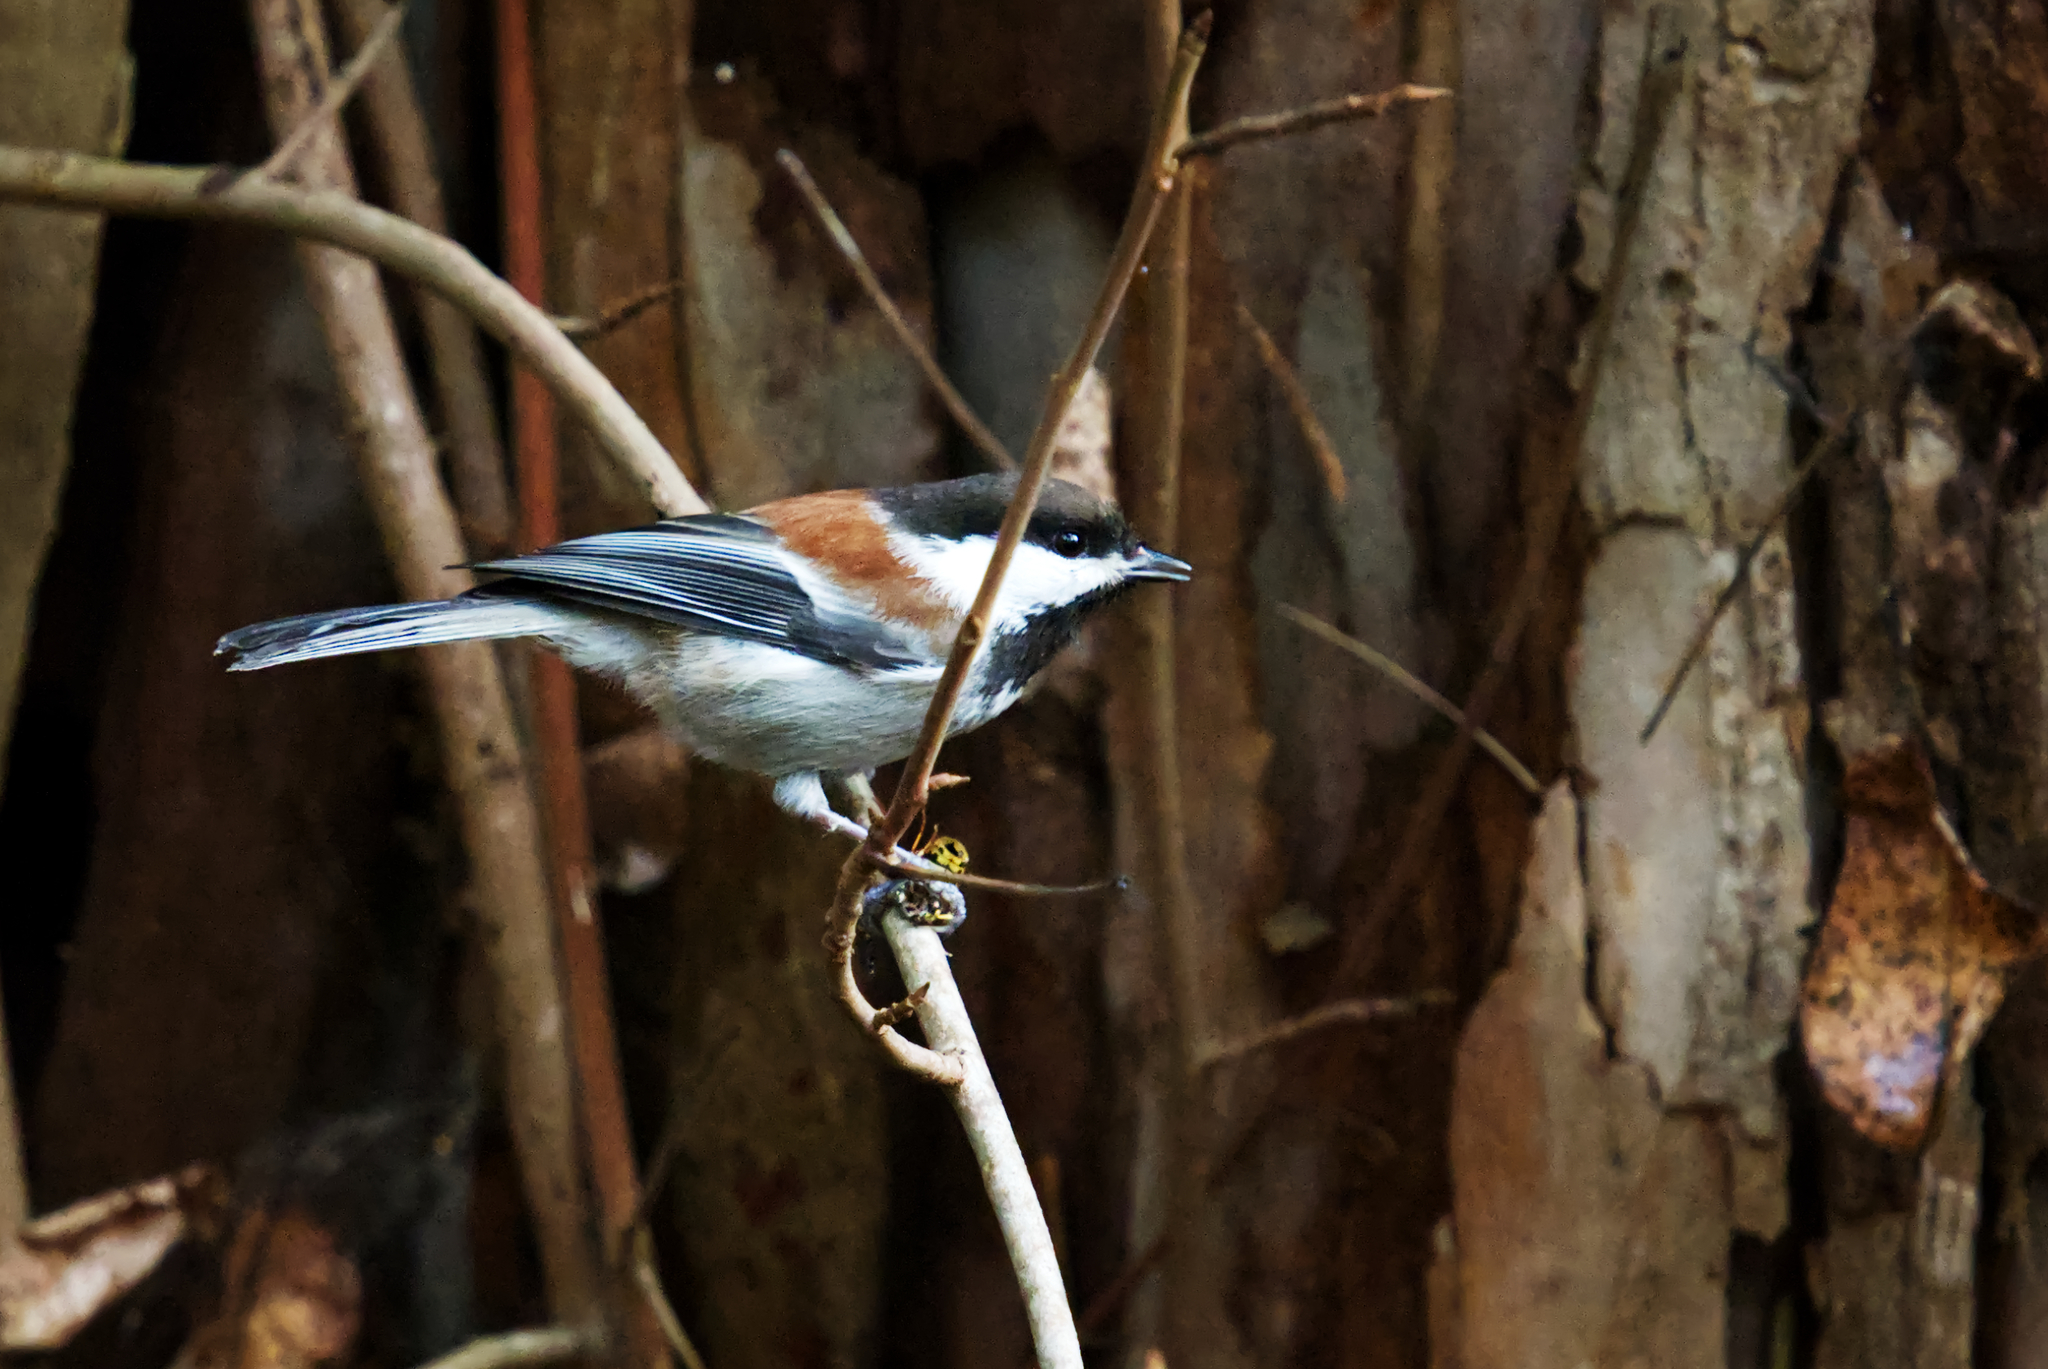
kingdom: Animalia
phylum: Chordata
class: Aves
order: Passeriformes
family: Paridae
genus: Poecile
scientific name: Poecile rufescens
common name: Chestnut-backed chickadee
